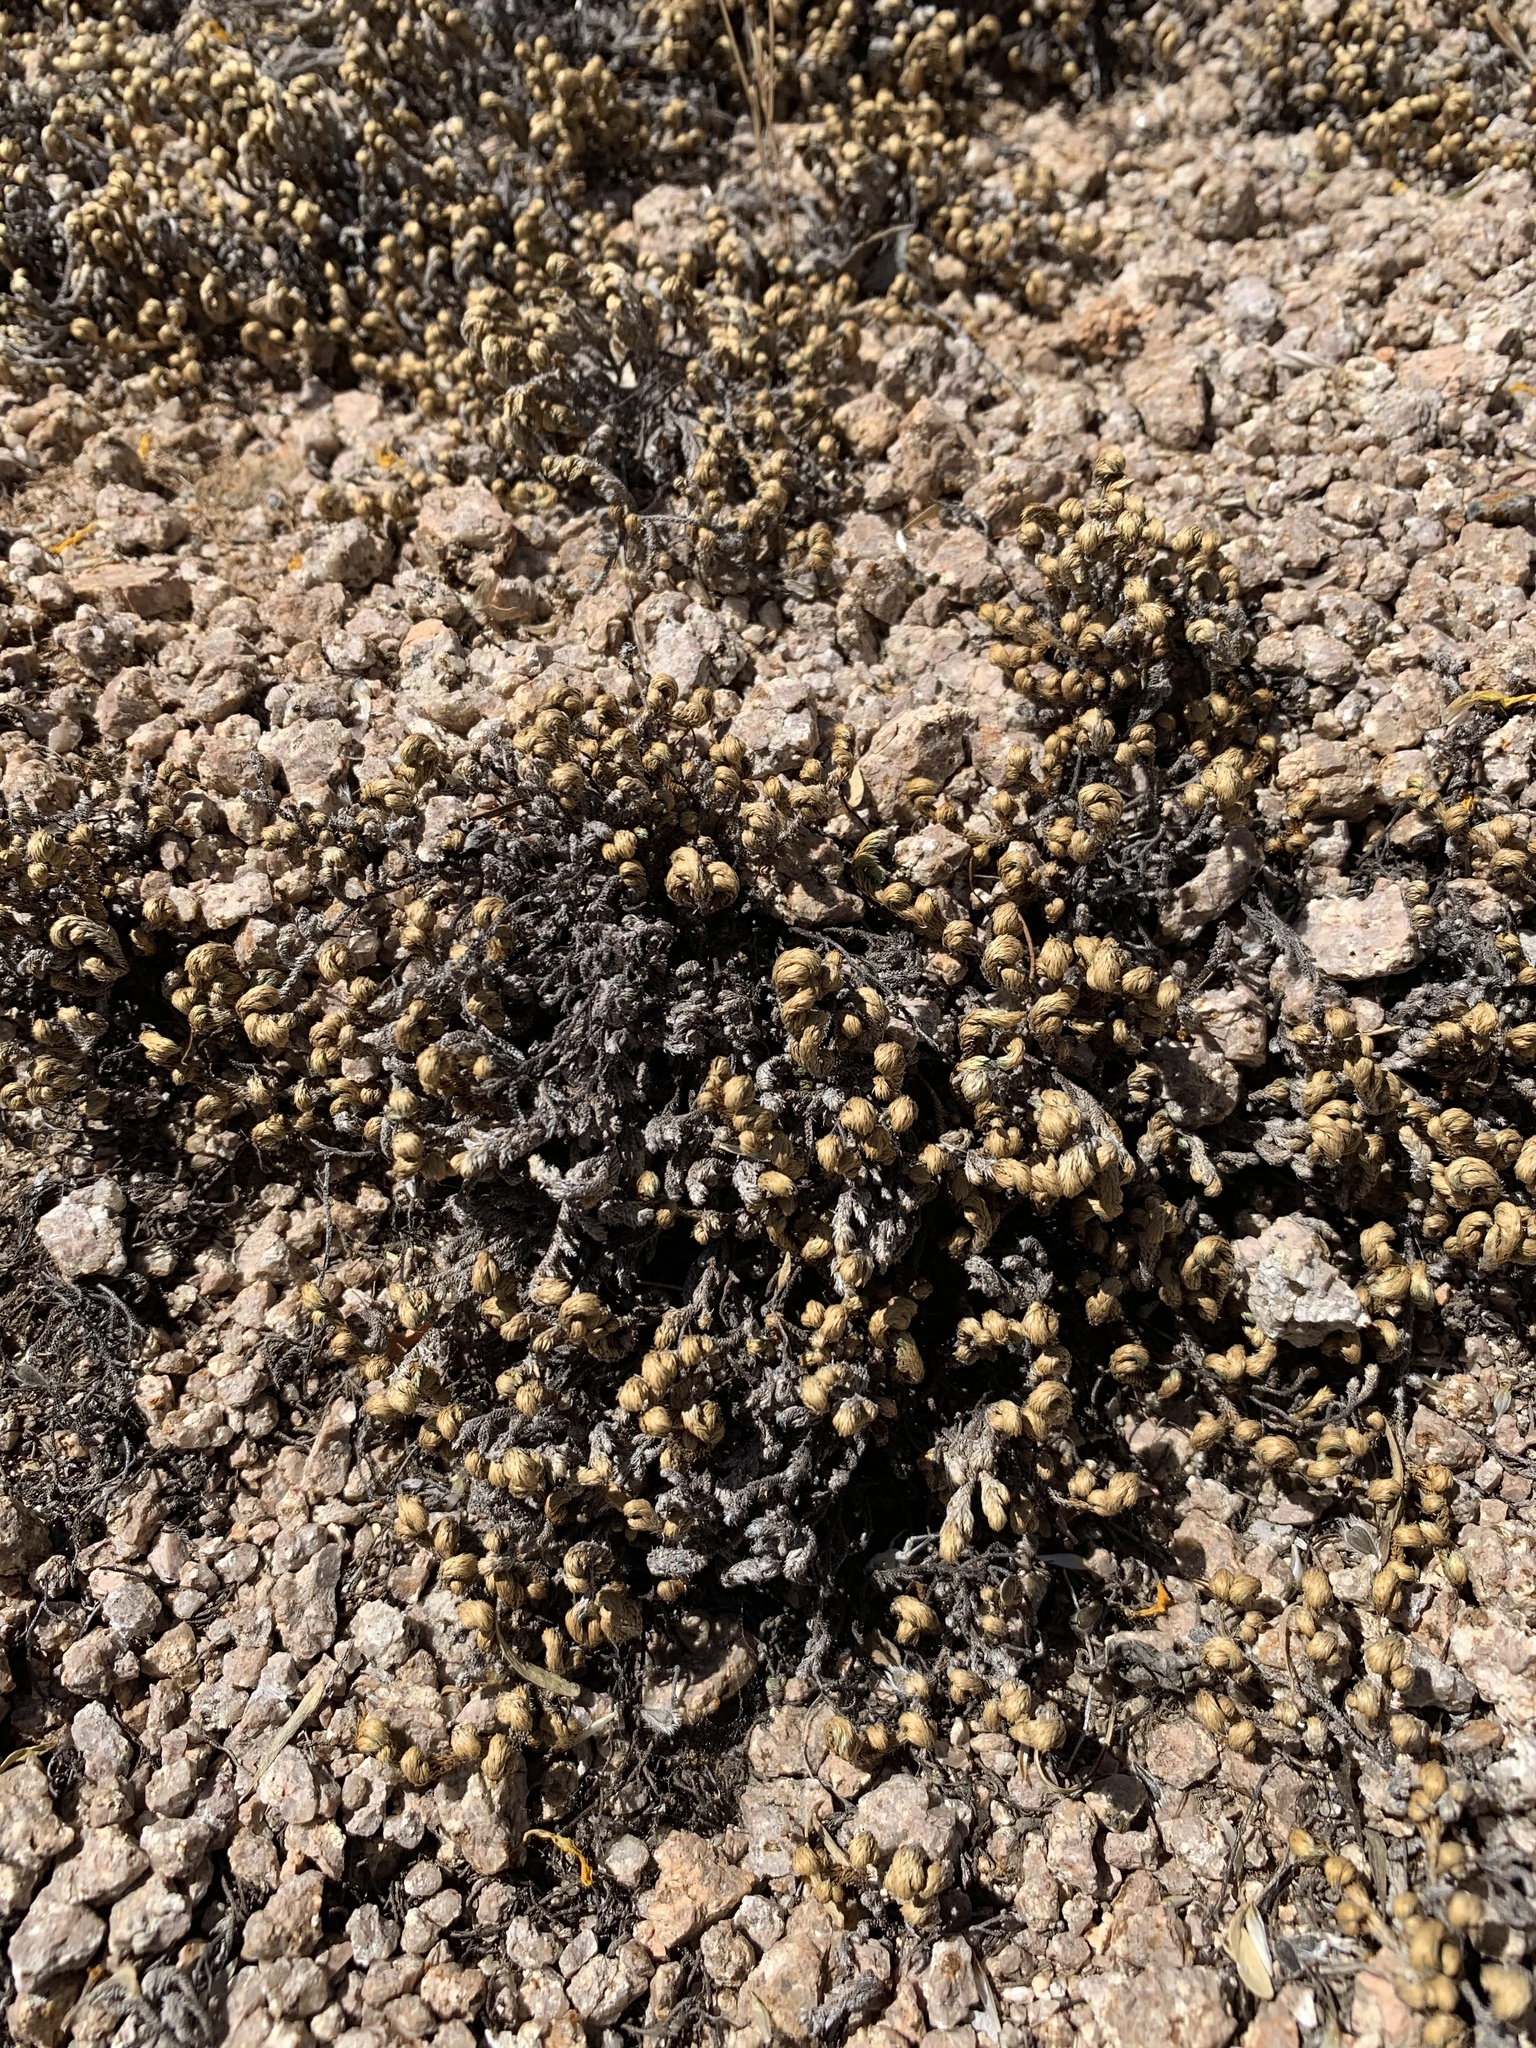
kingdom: Plantae
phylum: Tracheophyta
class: Lycopodiopsida
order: Selaginellales
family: Selaginellaceae
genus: Selaginella
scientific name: Selaginella arizonica
